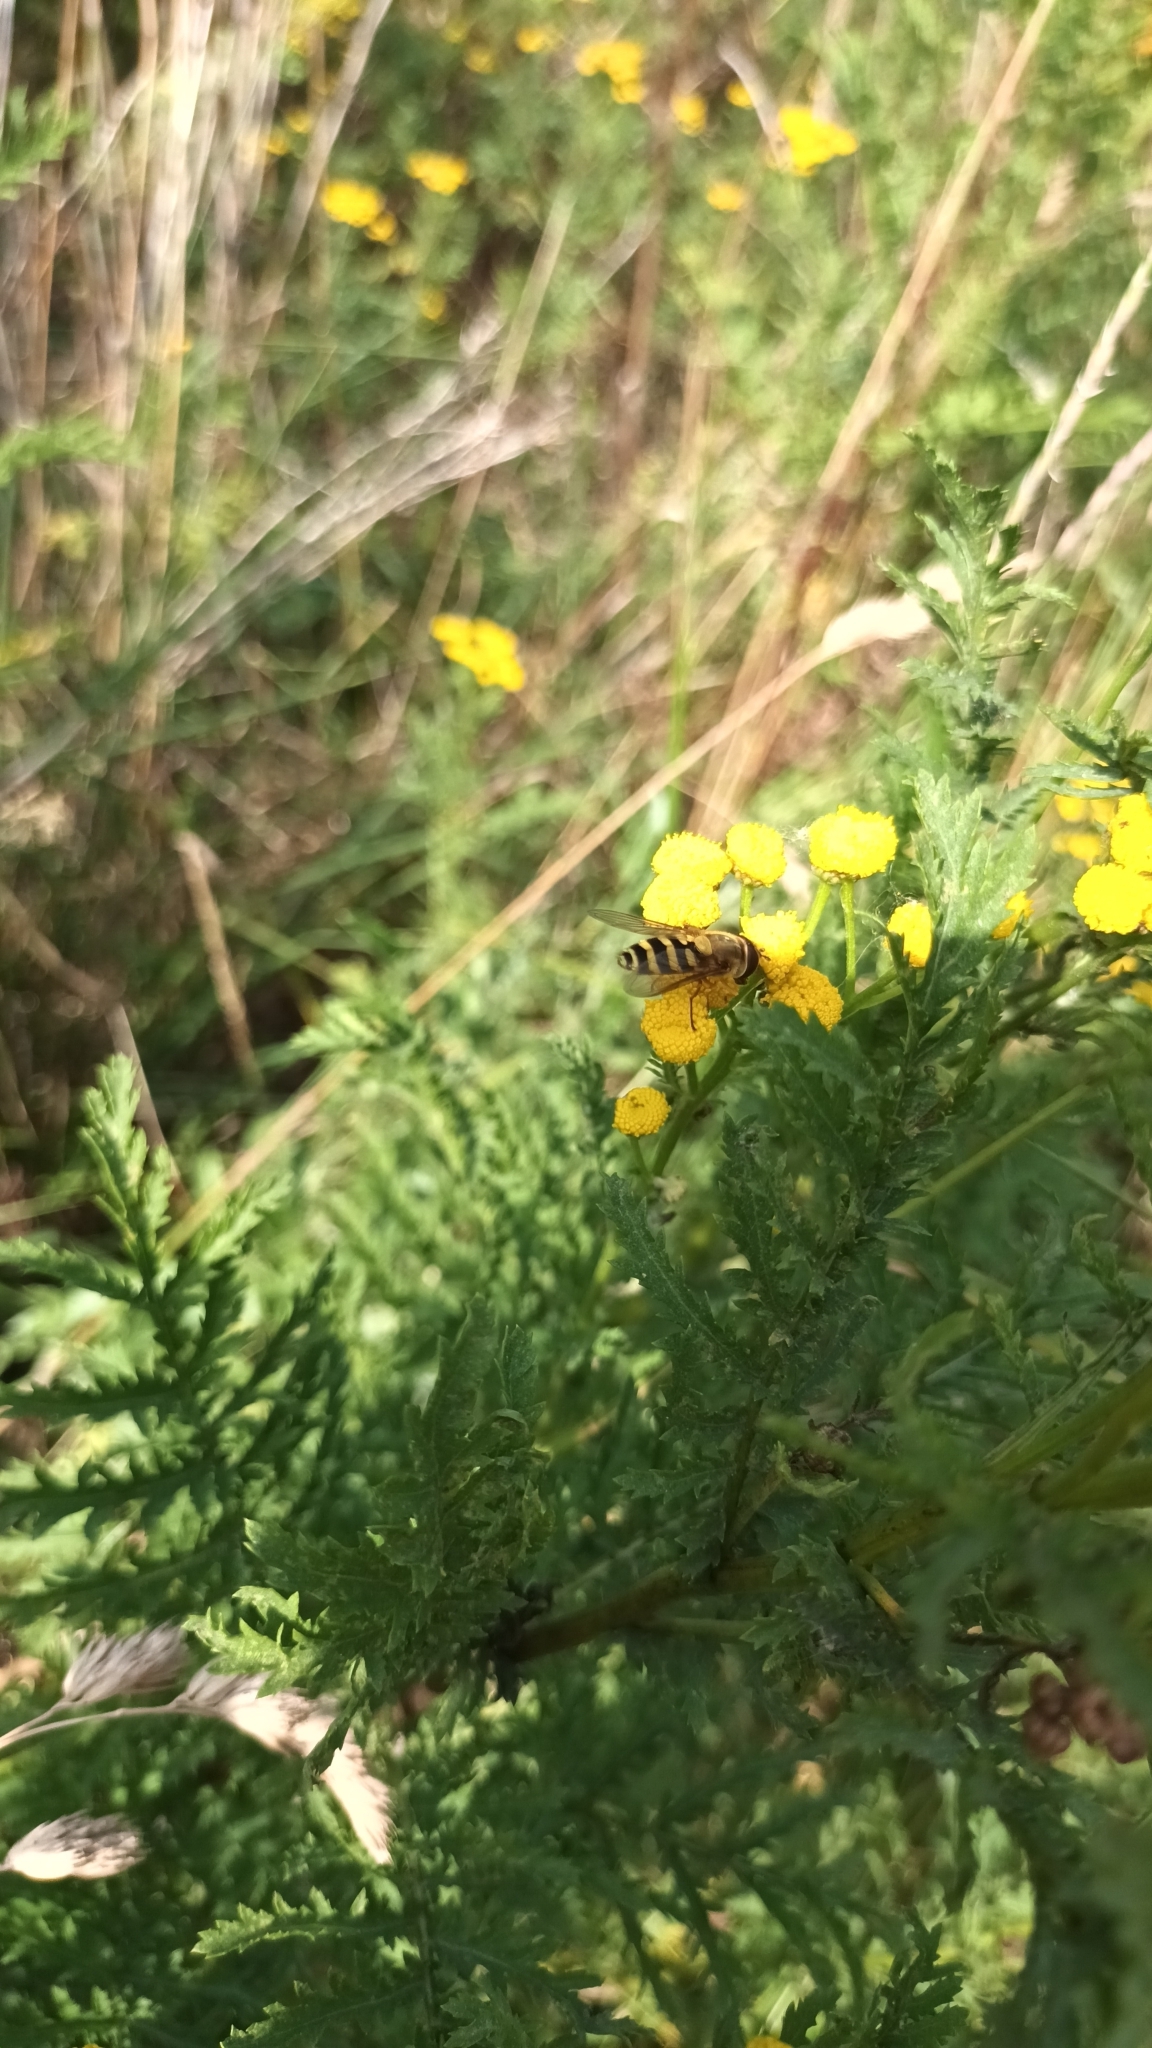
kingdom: Animalia
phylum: Arthropoda
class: Insecta
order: Diptera
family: Syrphidae
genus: Syrphus
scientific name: Syrphus
